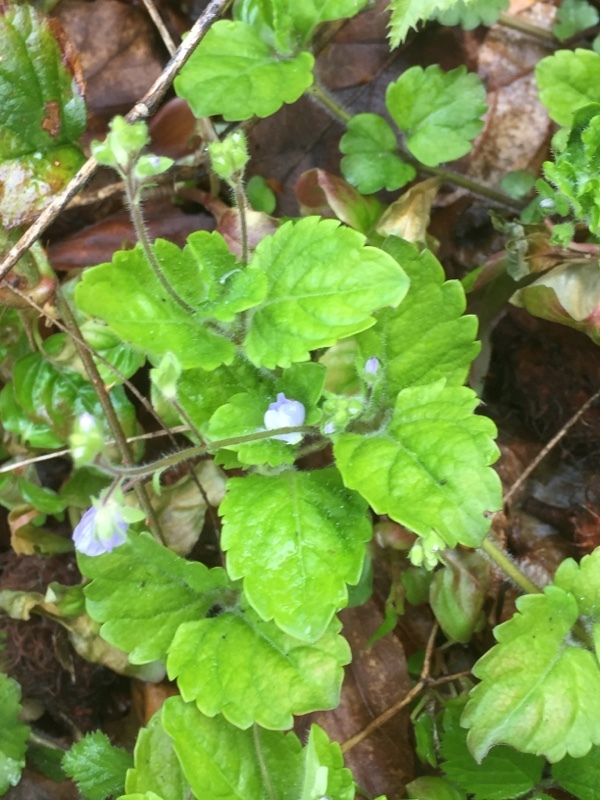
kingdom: Plantae
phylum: Tracheophyta
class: Magnoliopsida
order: Lamiales
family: Plantaginaceae
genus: Veronica
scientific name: Veronica montana
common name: Wood speedwell
